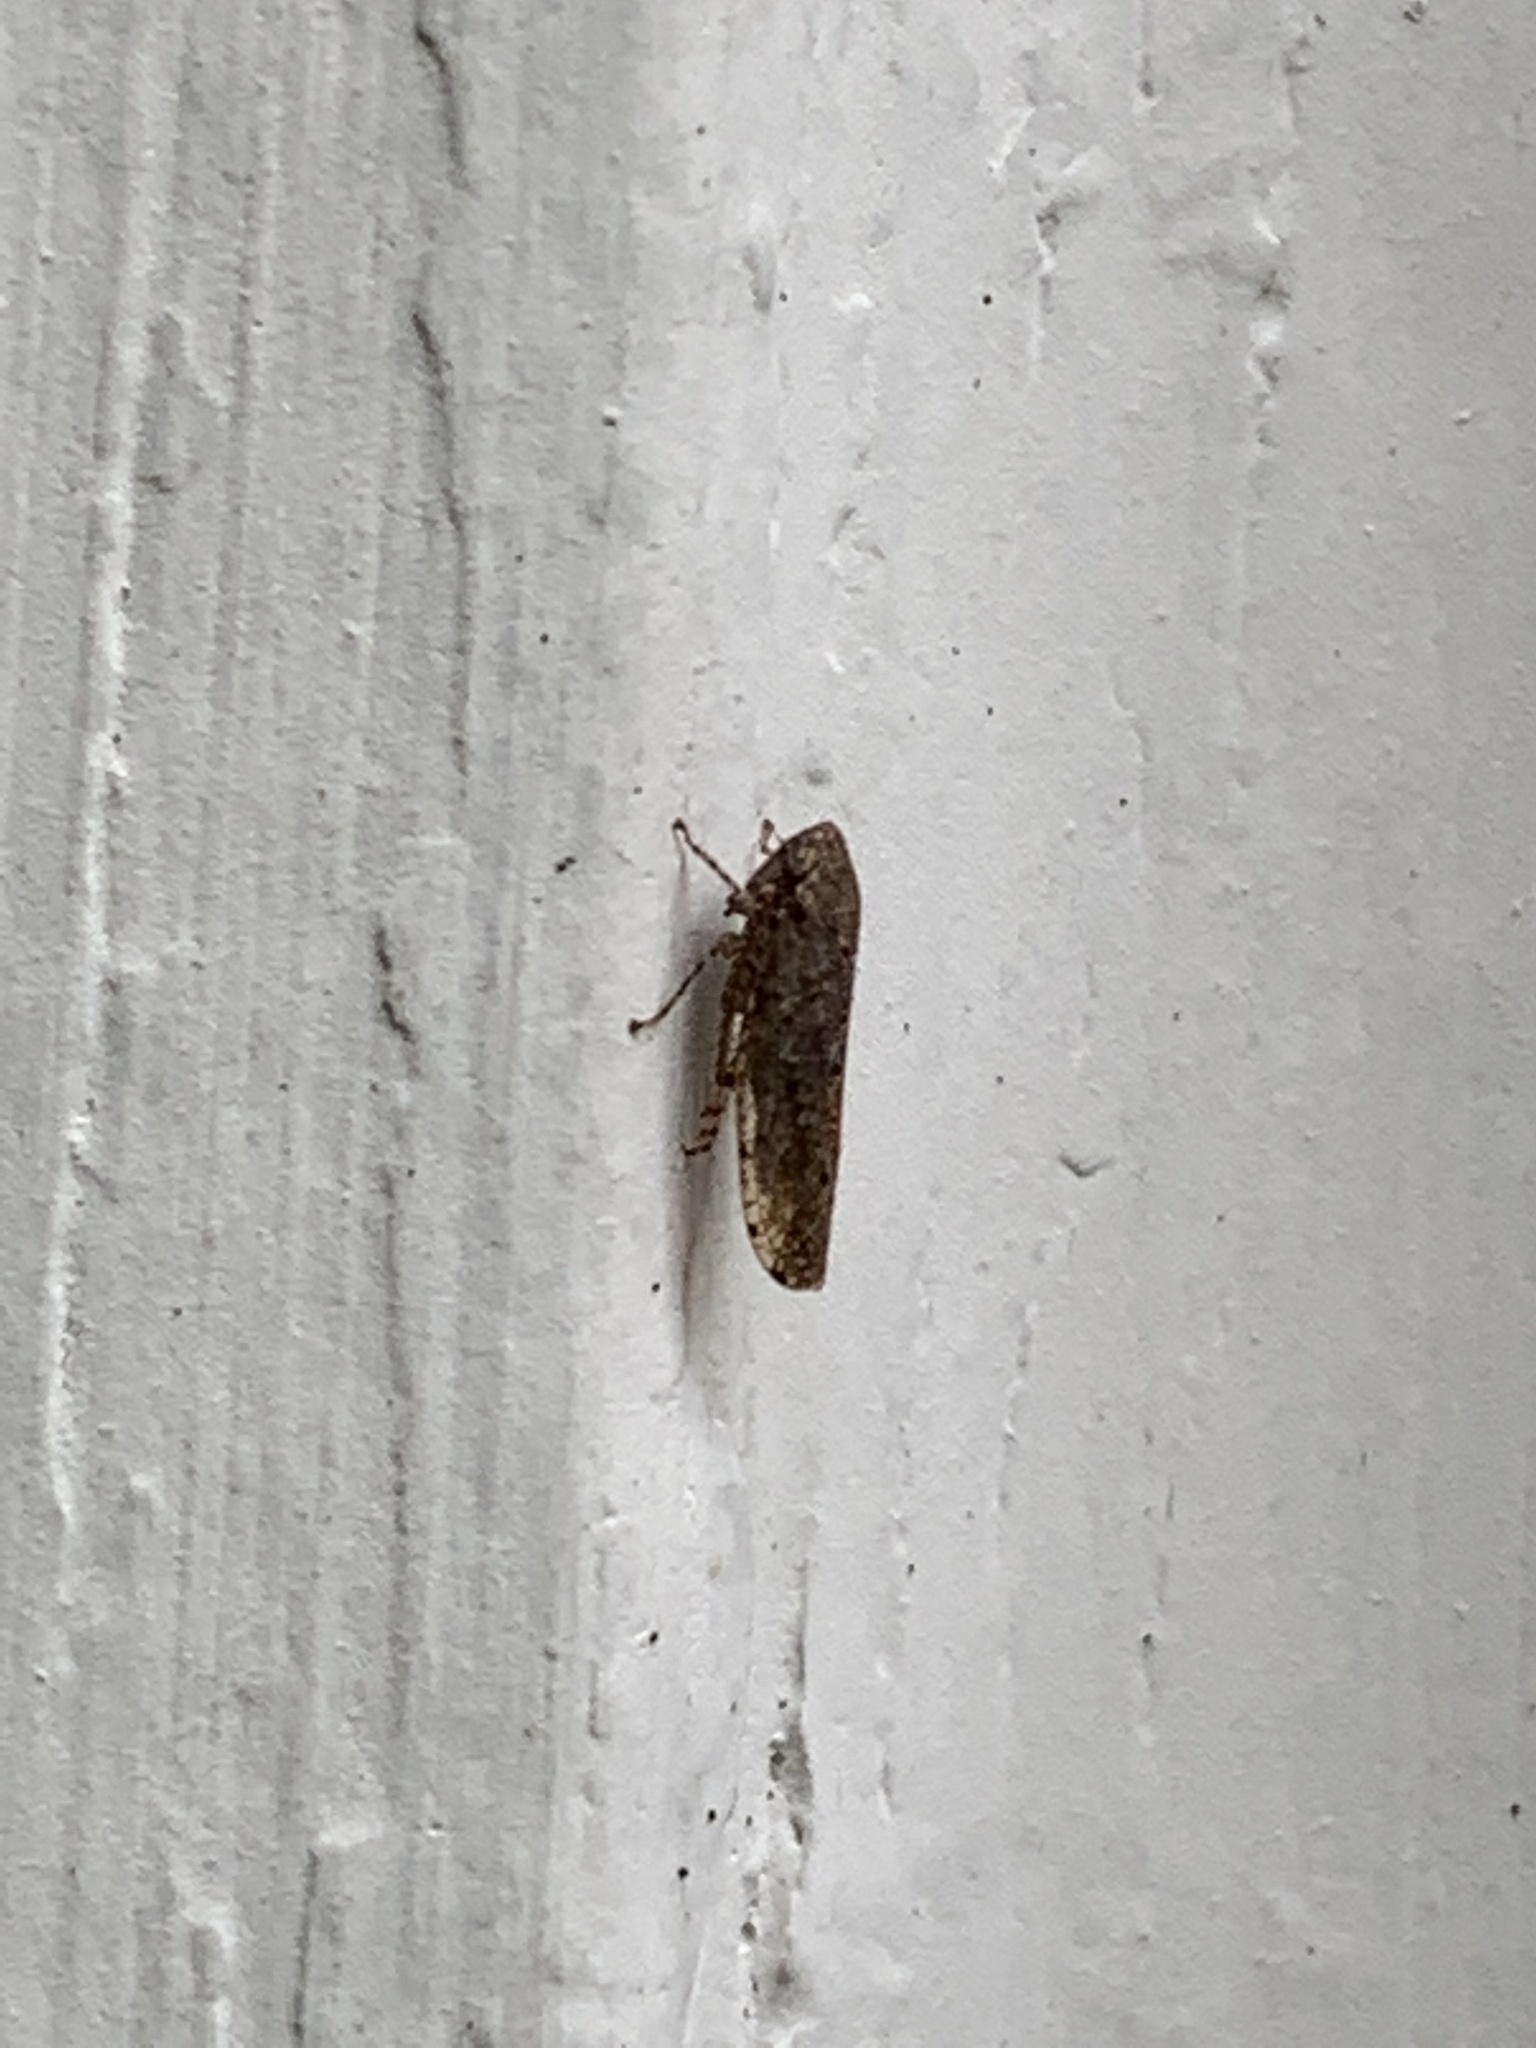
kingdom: Animalia
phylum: Arthropoda
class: Insecta
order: Hemiptera
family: Cicadellidae
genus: Paraphlepsius
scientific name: Paraphlepsius
